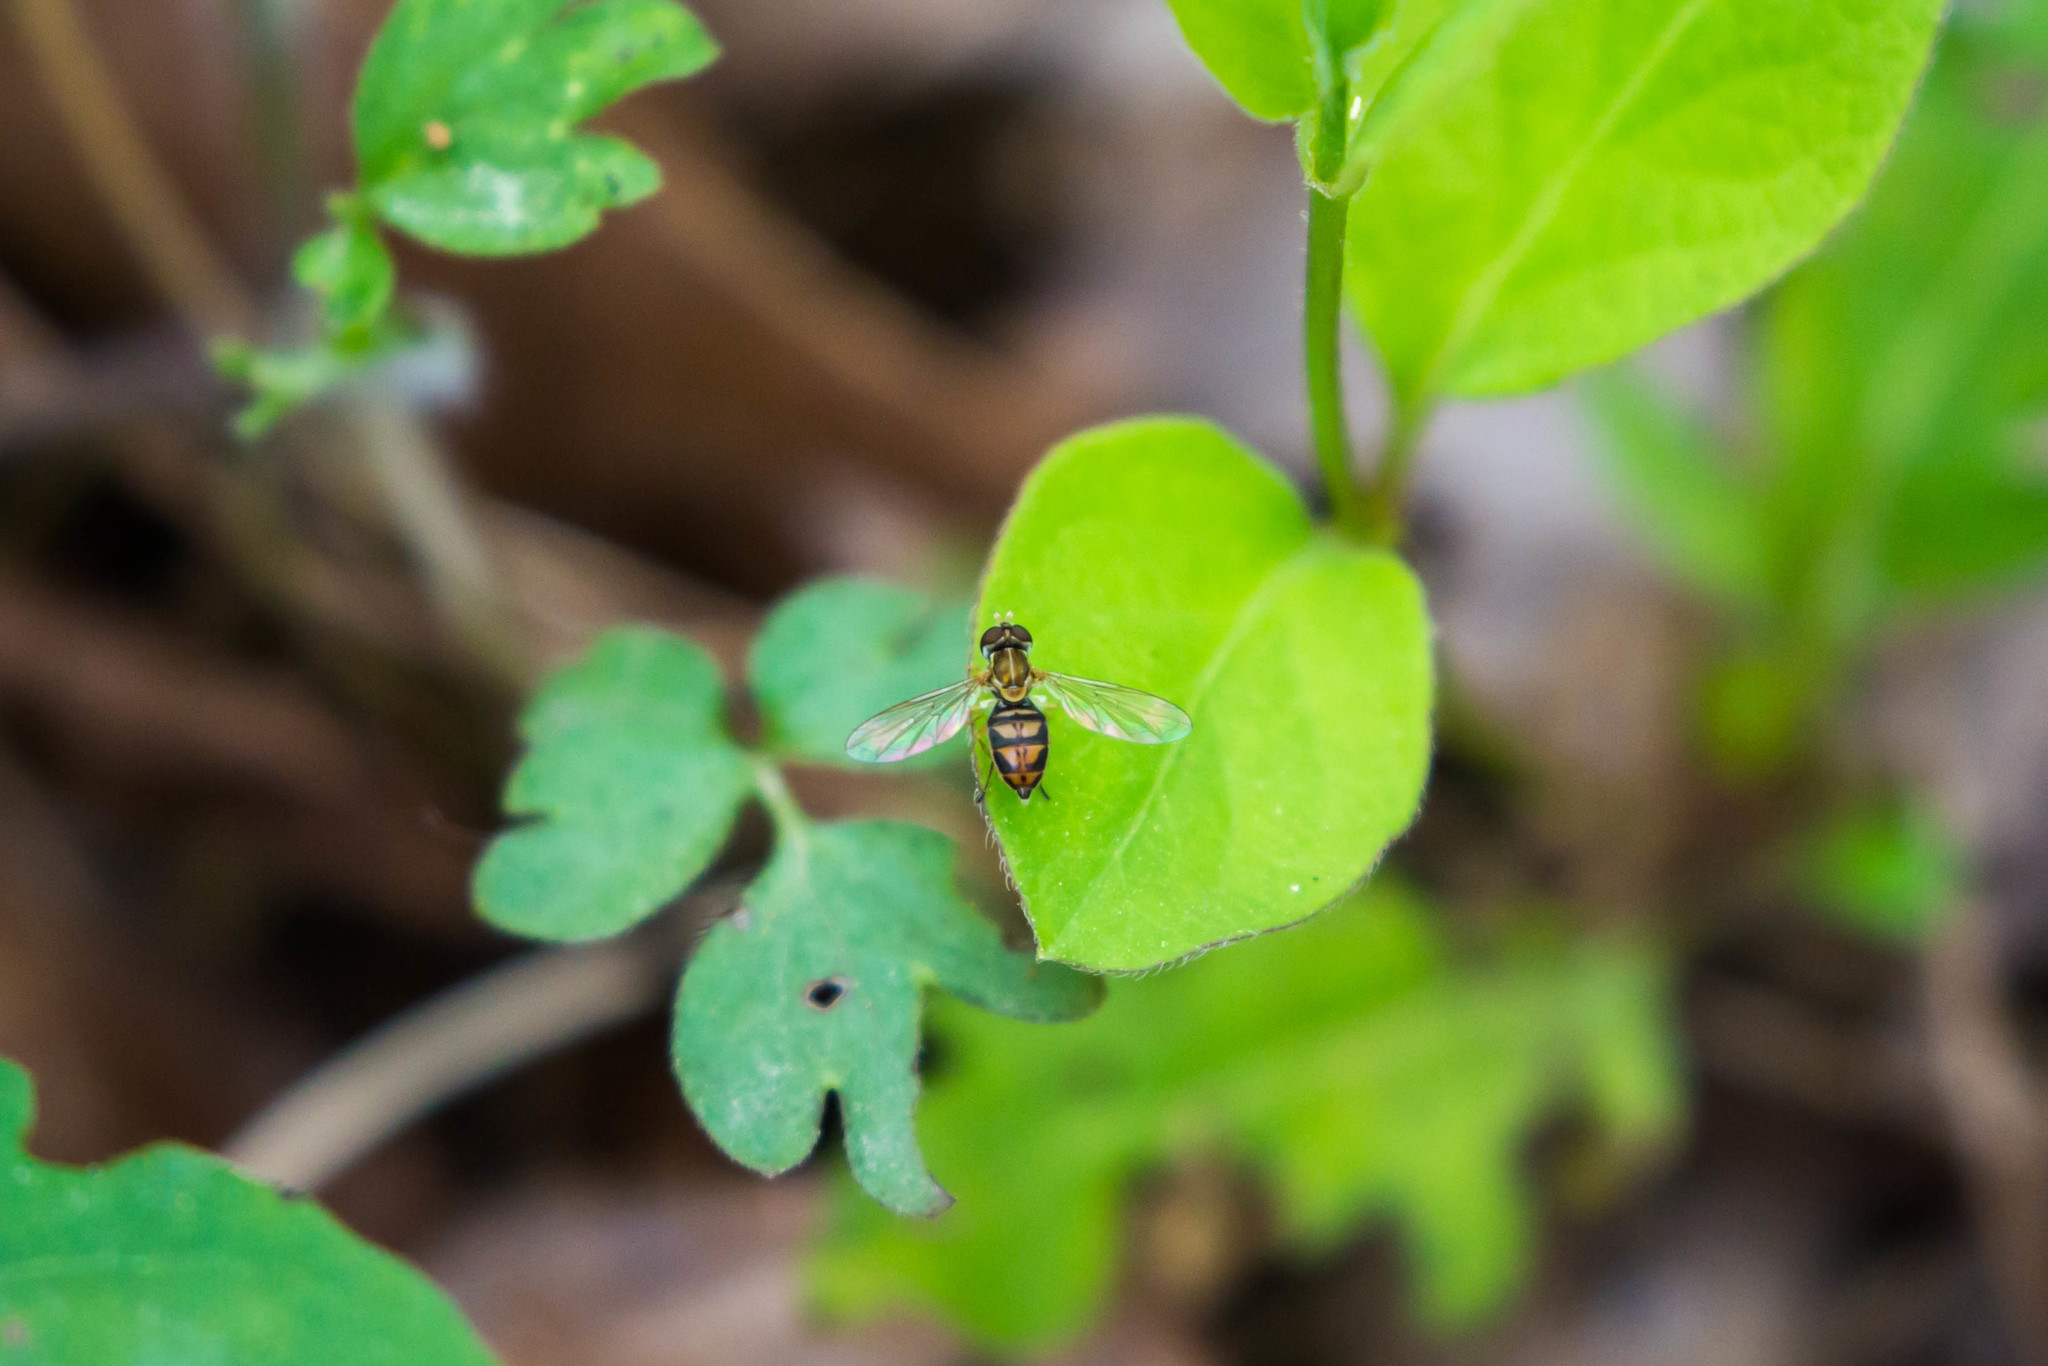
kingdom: Animalia
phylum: Arthropoda
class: Insecta
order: Diptera
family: Syrphidae
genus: Toxomerus
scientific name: Toxomerus marginatus
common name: Syrphid fly
